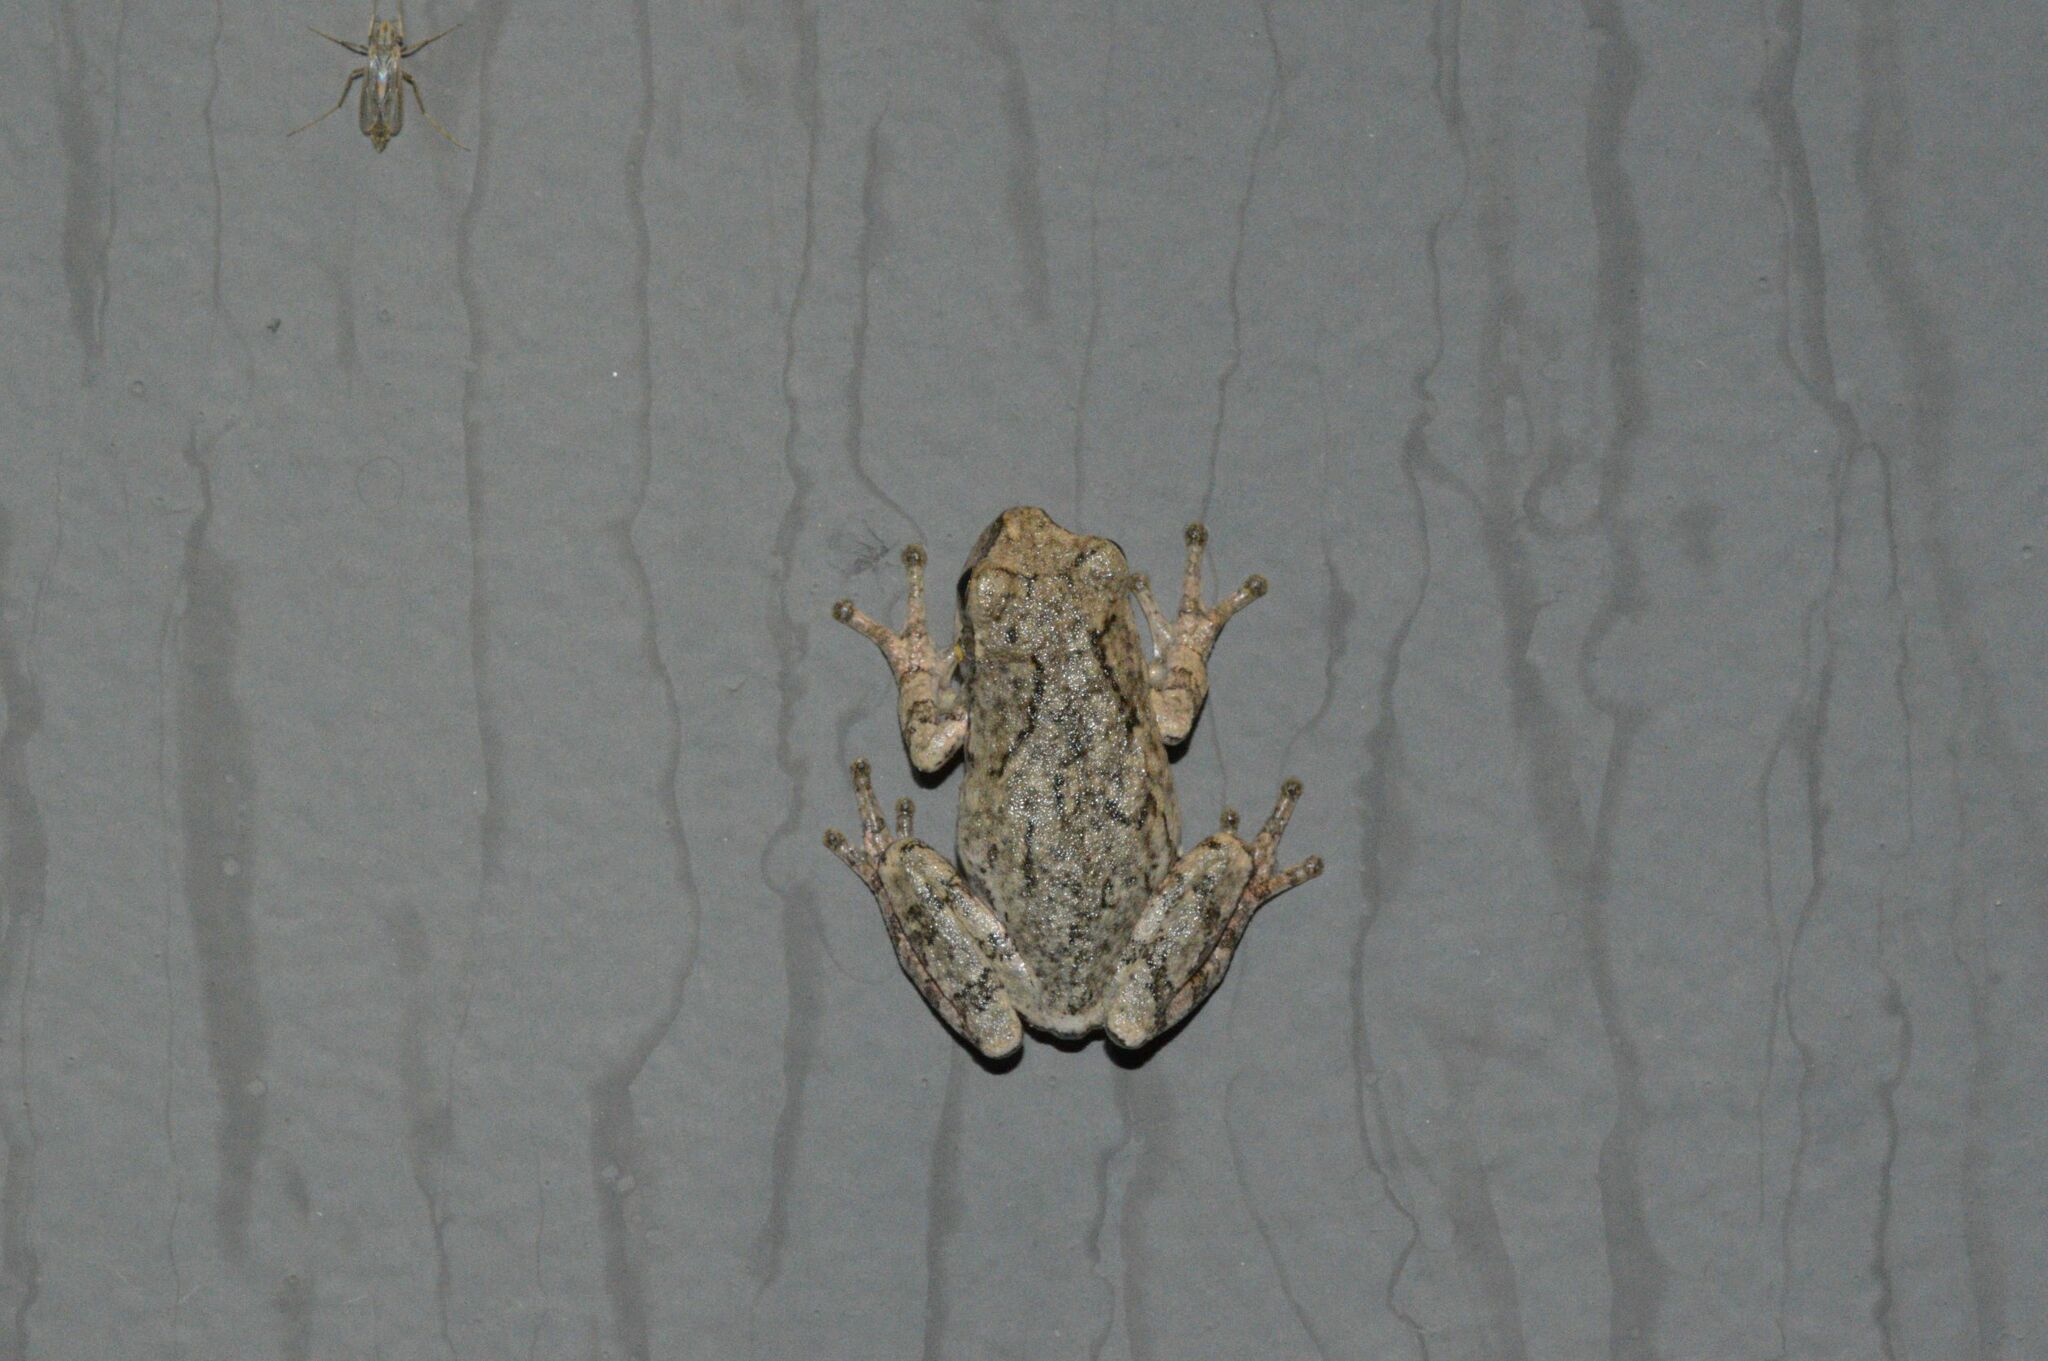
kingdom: Animalia
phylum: Chordata
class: Amphibia
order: Anura
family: Hylidae
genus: Dryophytes
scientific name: Dryophytes chrysoscelis
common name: Cope's gray treefrog
